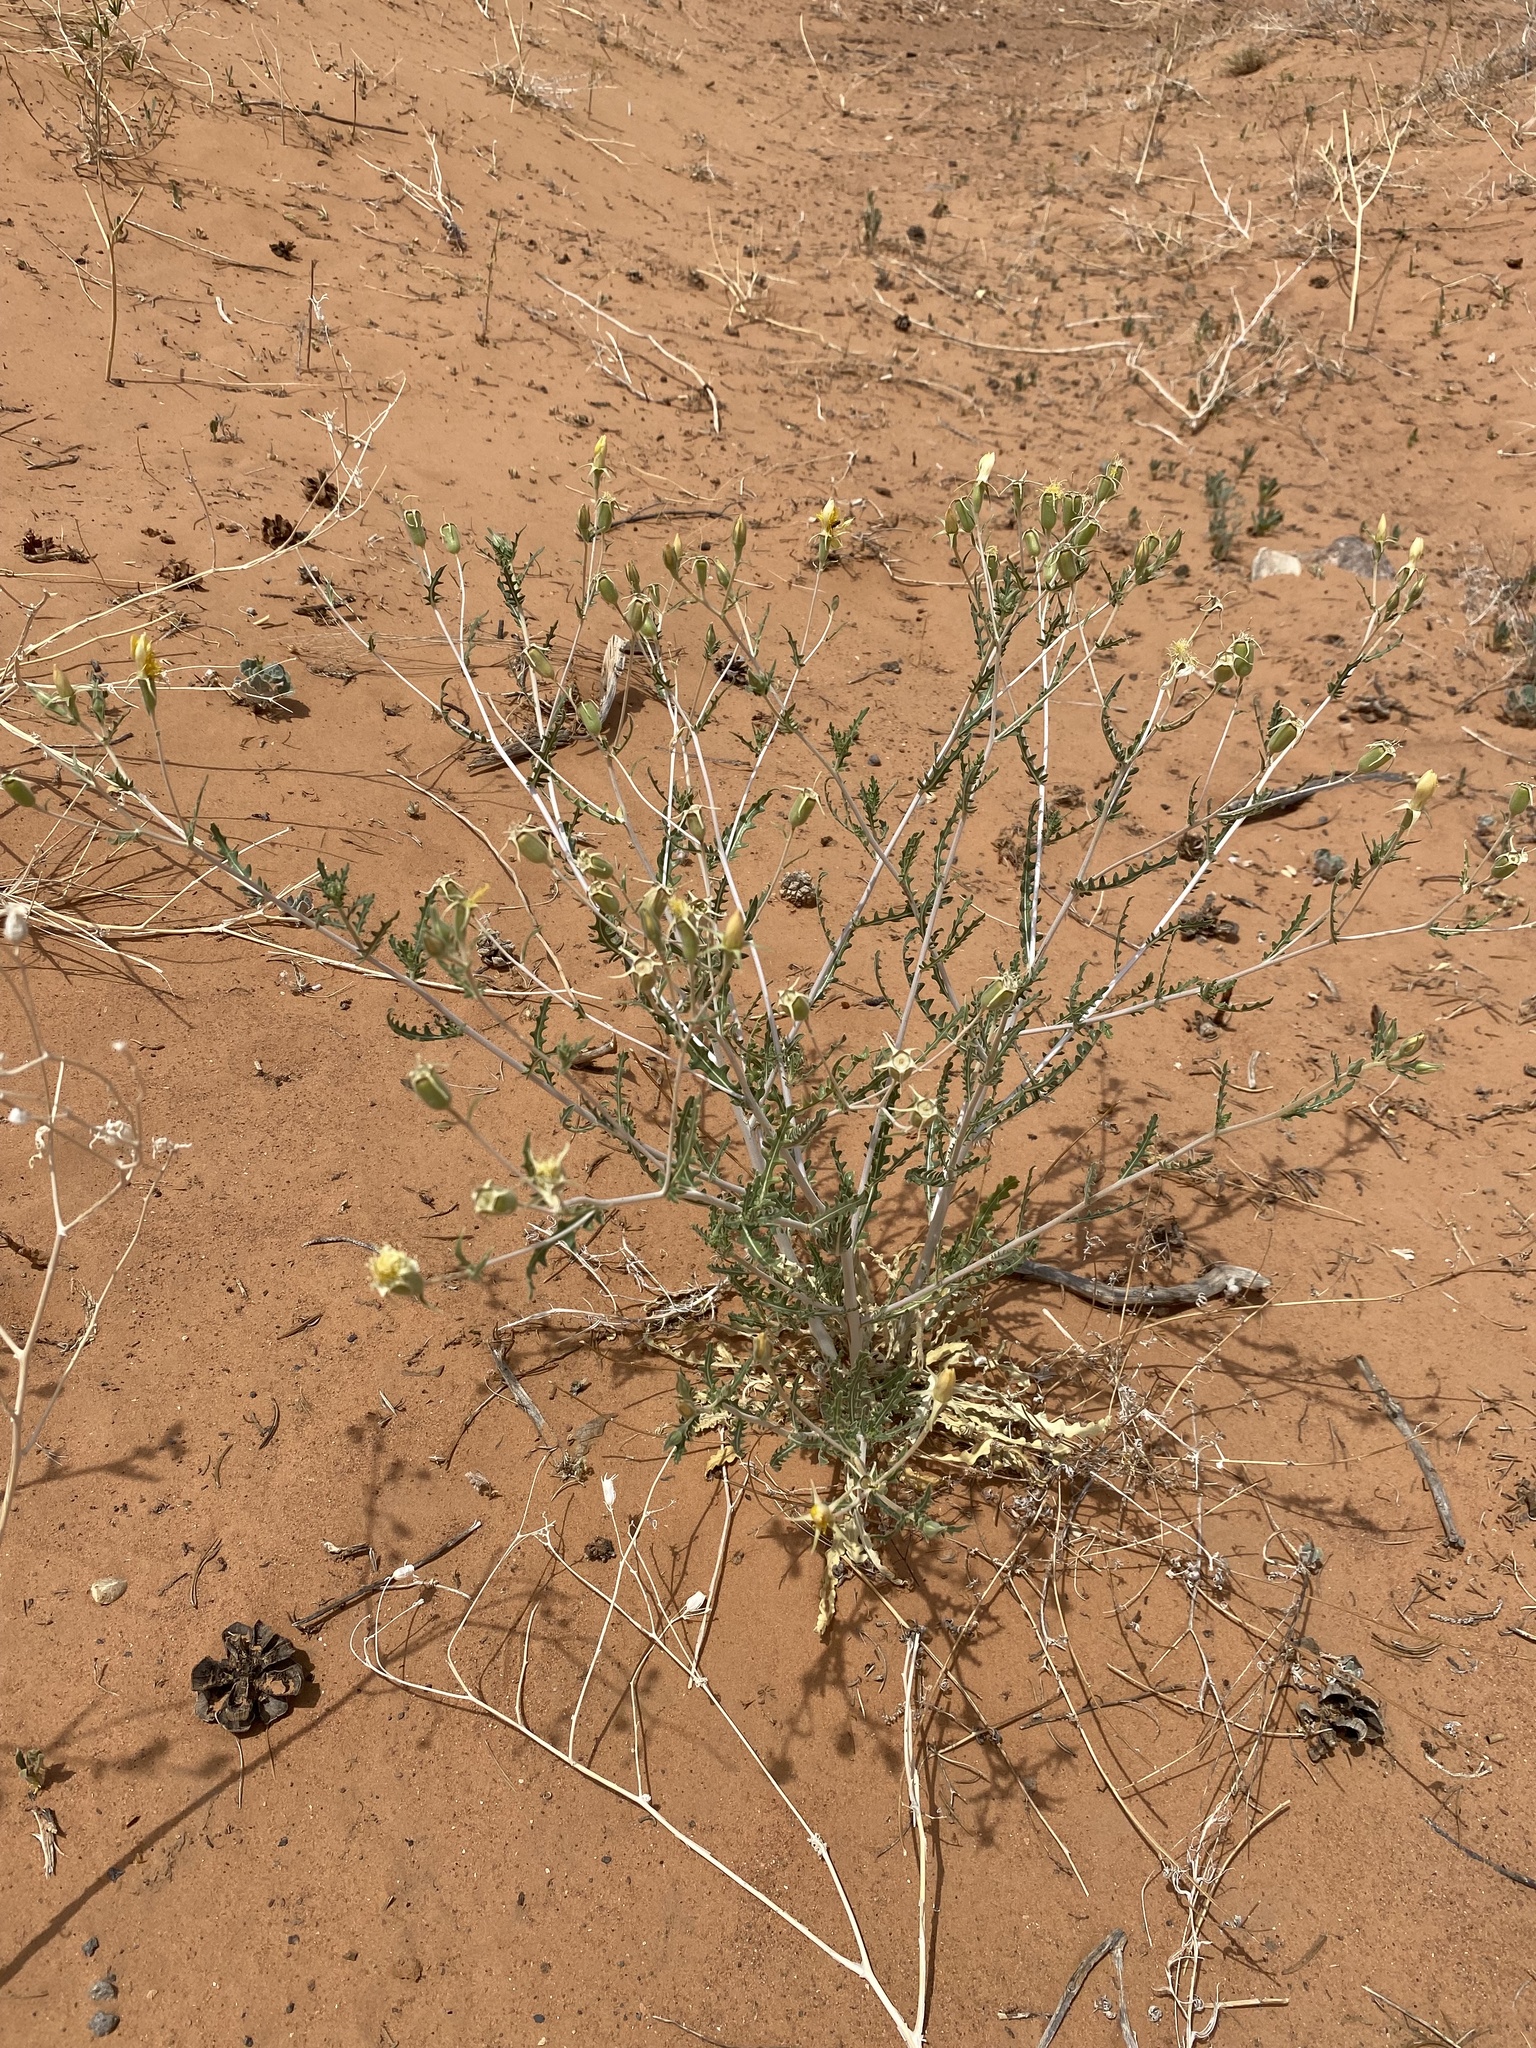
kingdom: Plantae
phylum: Tracheophyta
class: Magnoliopsida
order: Cornales
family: Loasaceae
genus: Mentzelia
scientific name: Mentzelia longiloba
